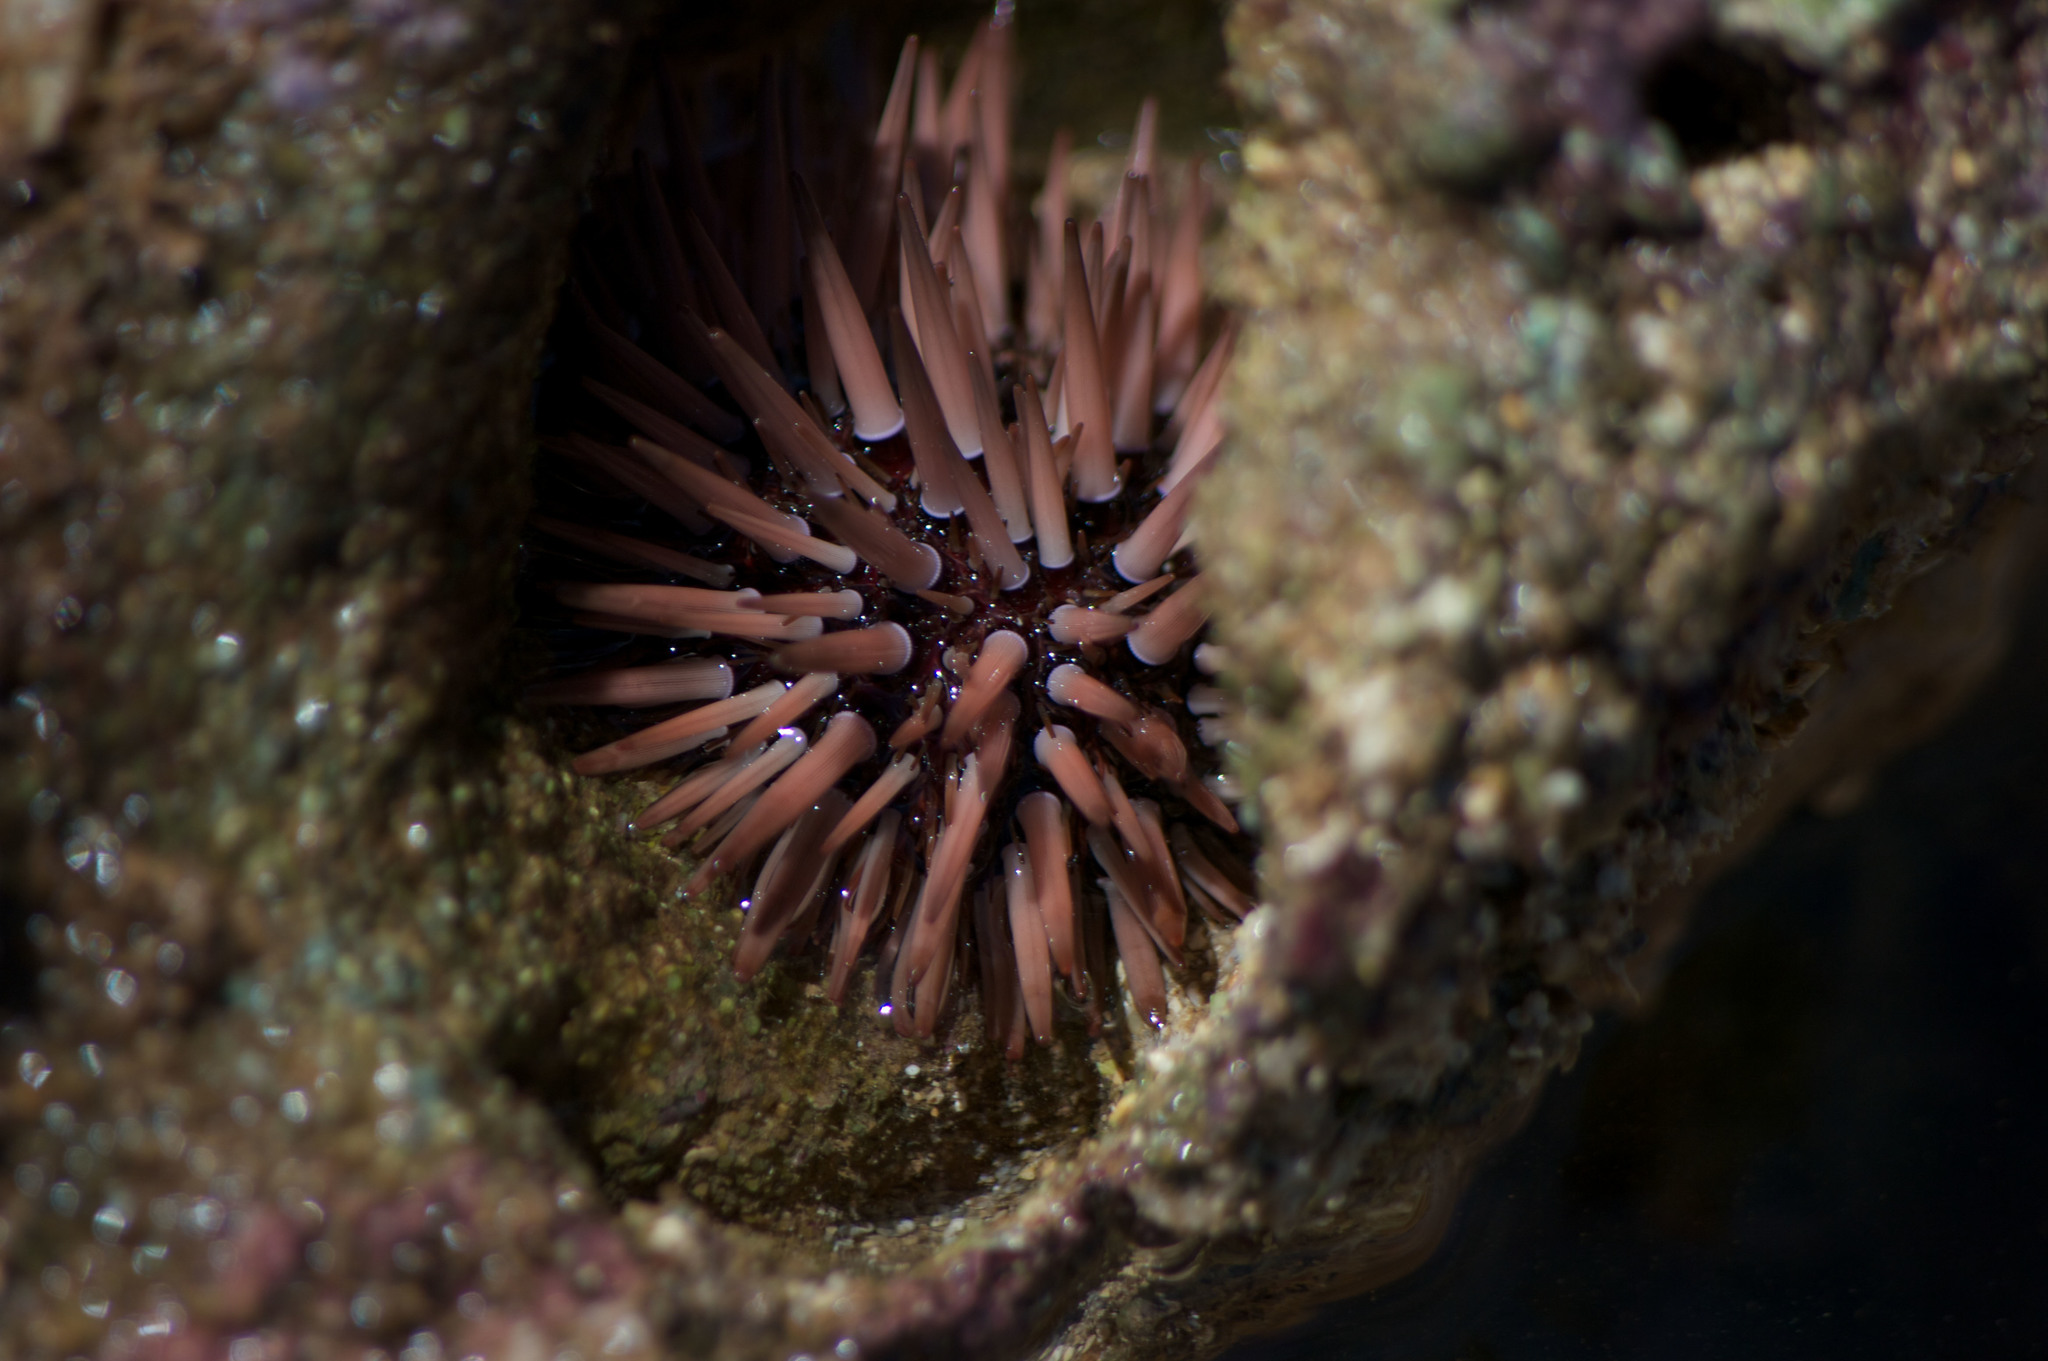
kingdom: Animalia
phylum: Echinodermata
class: Echinoidea
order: Camarodonta
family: Echinometridae
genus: Echinometra
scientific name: Echinometra mathaei
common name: Rock-boring urchin
